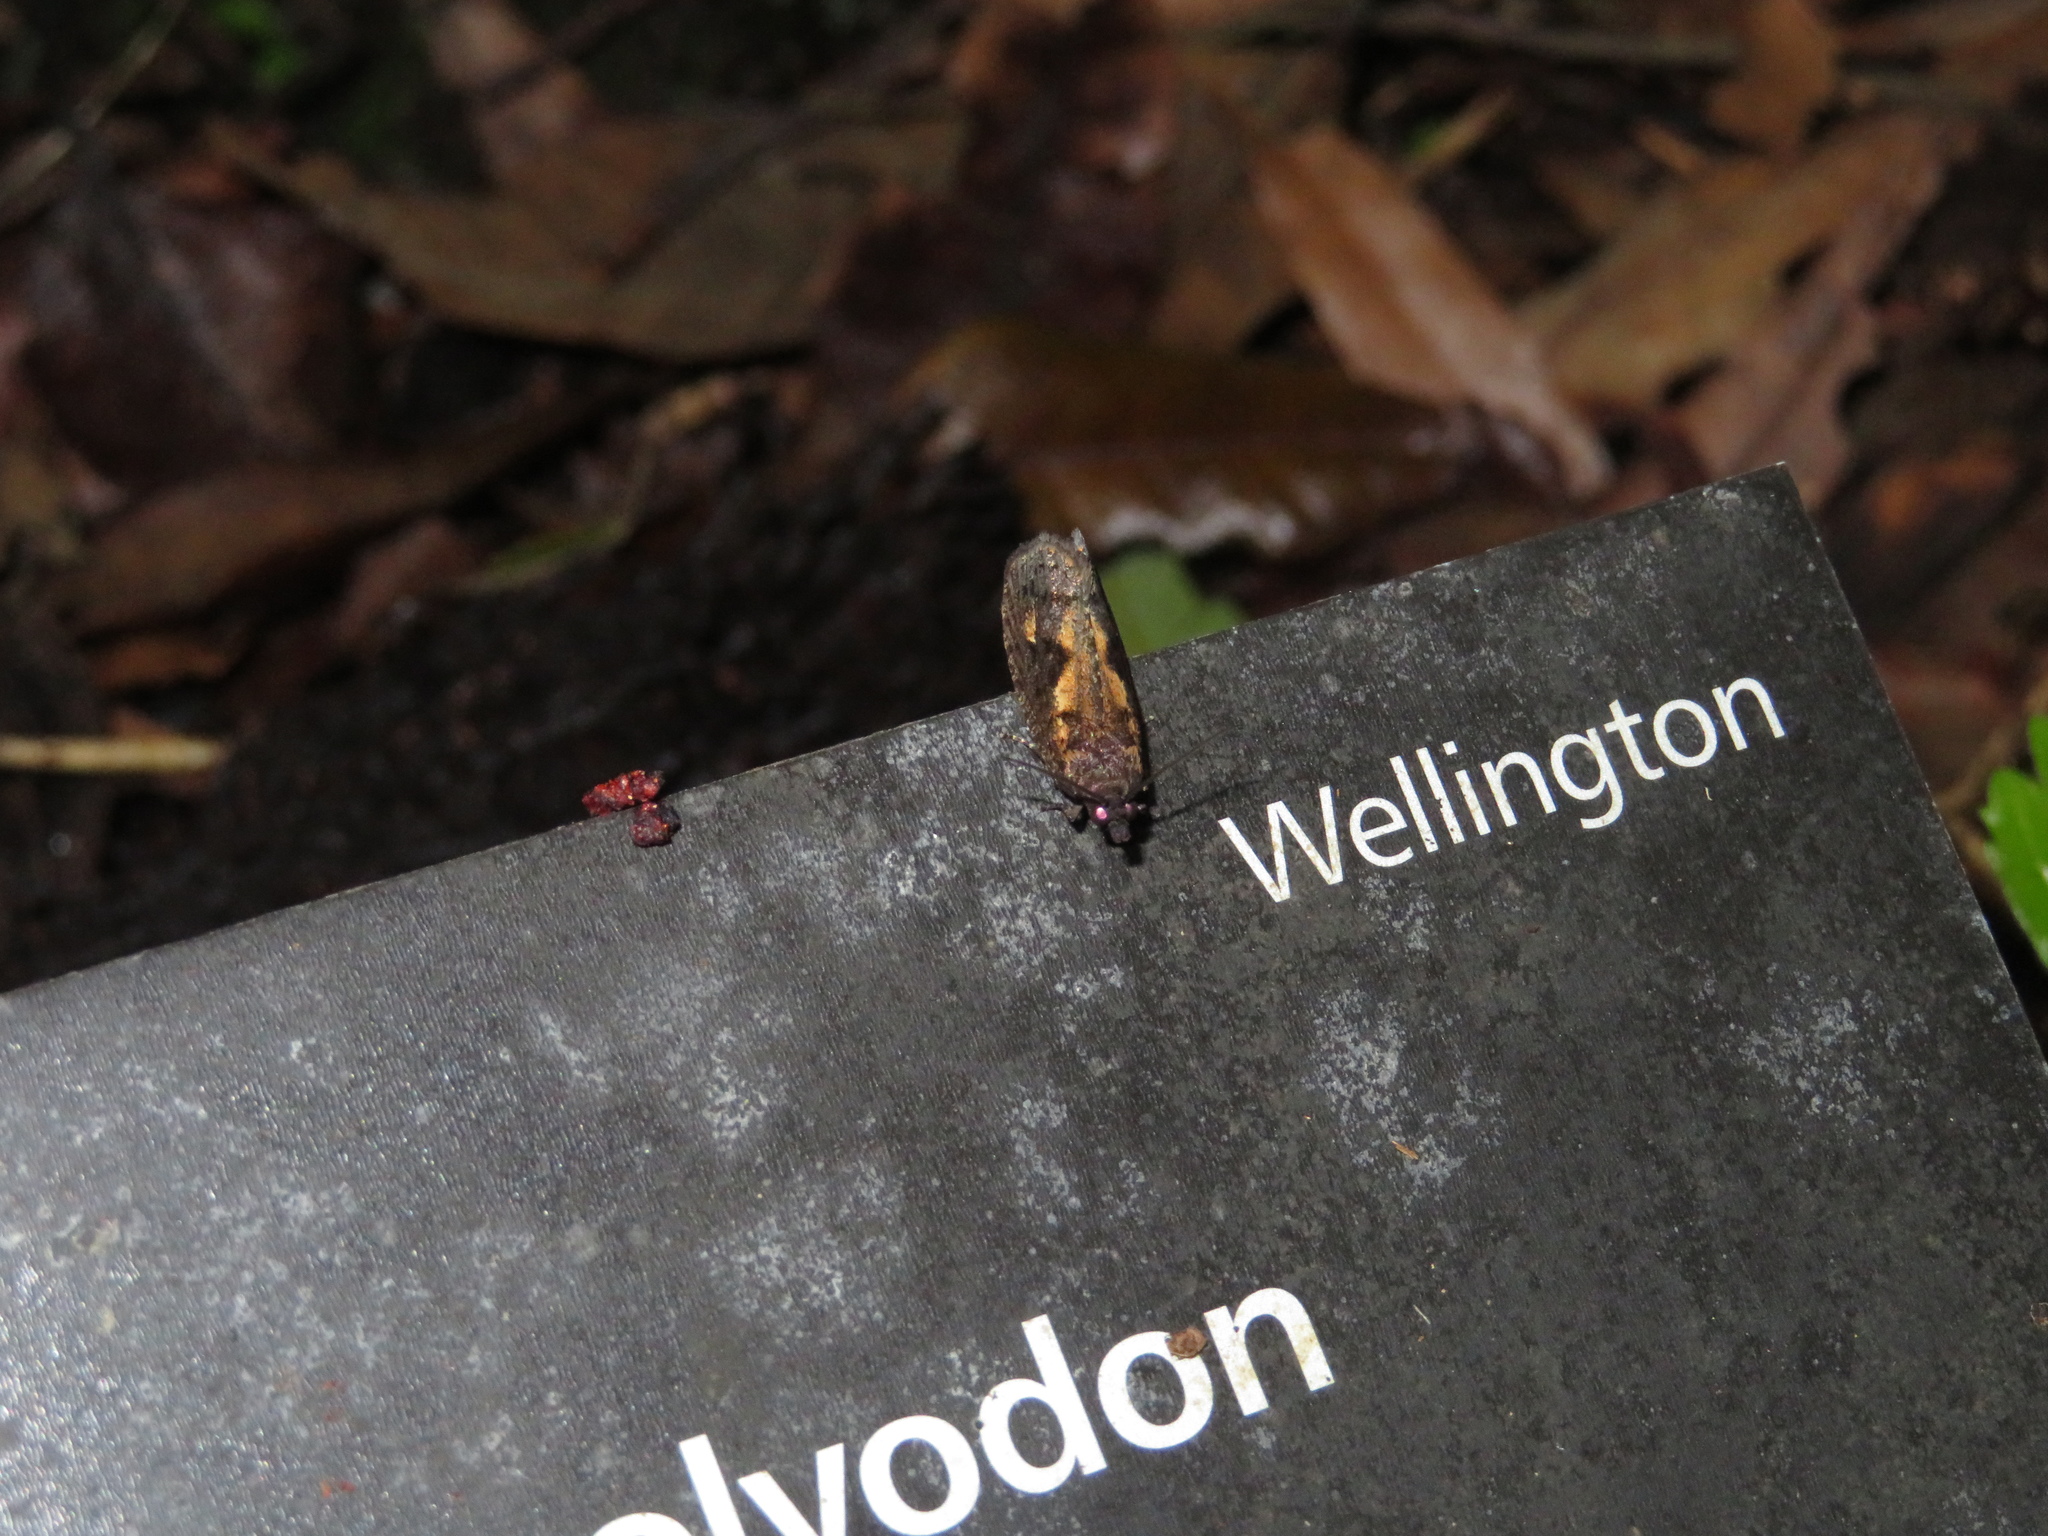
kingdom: Animalia
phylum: Arthropoda
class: Insecta
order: Lepidoptera
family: Tortricidae
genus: Cryptaspasma
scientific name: Cryptaspasma querula
